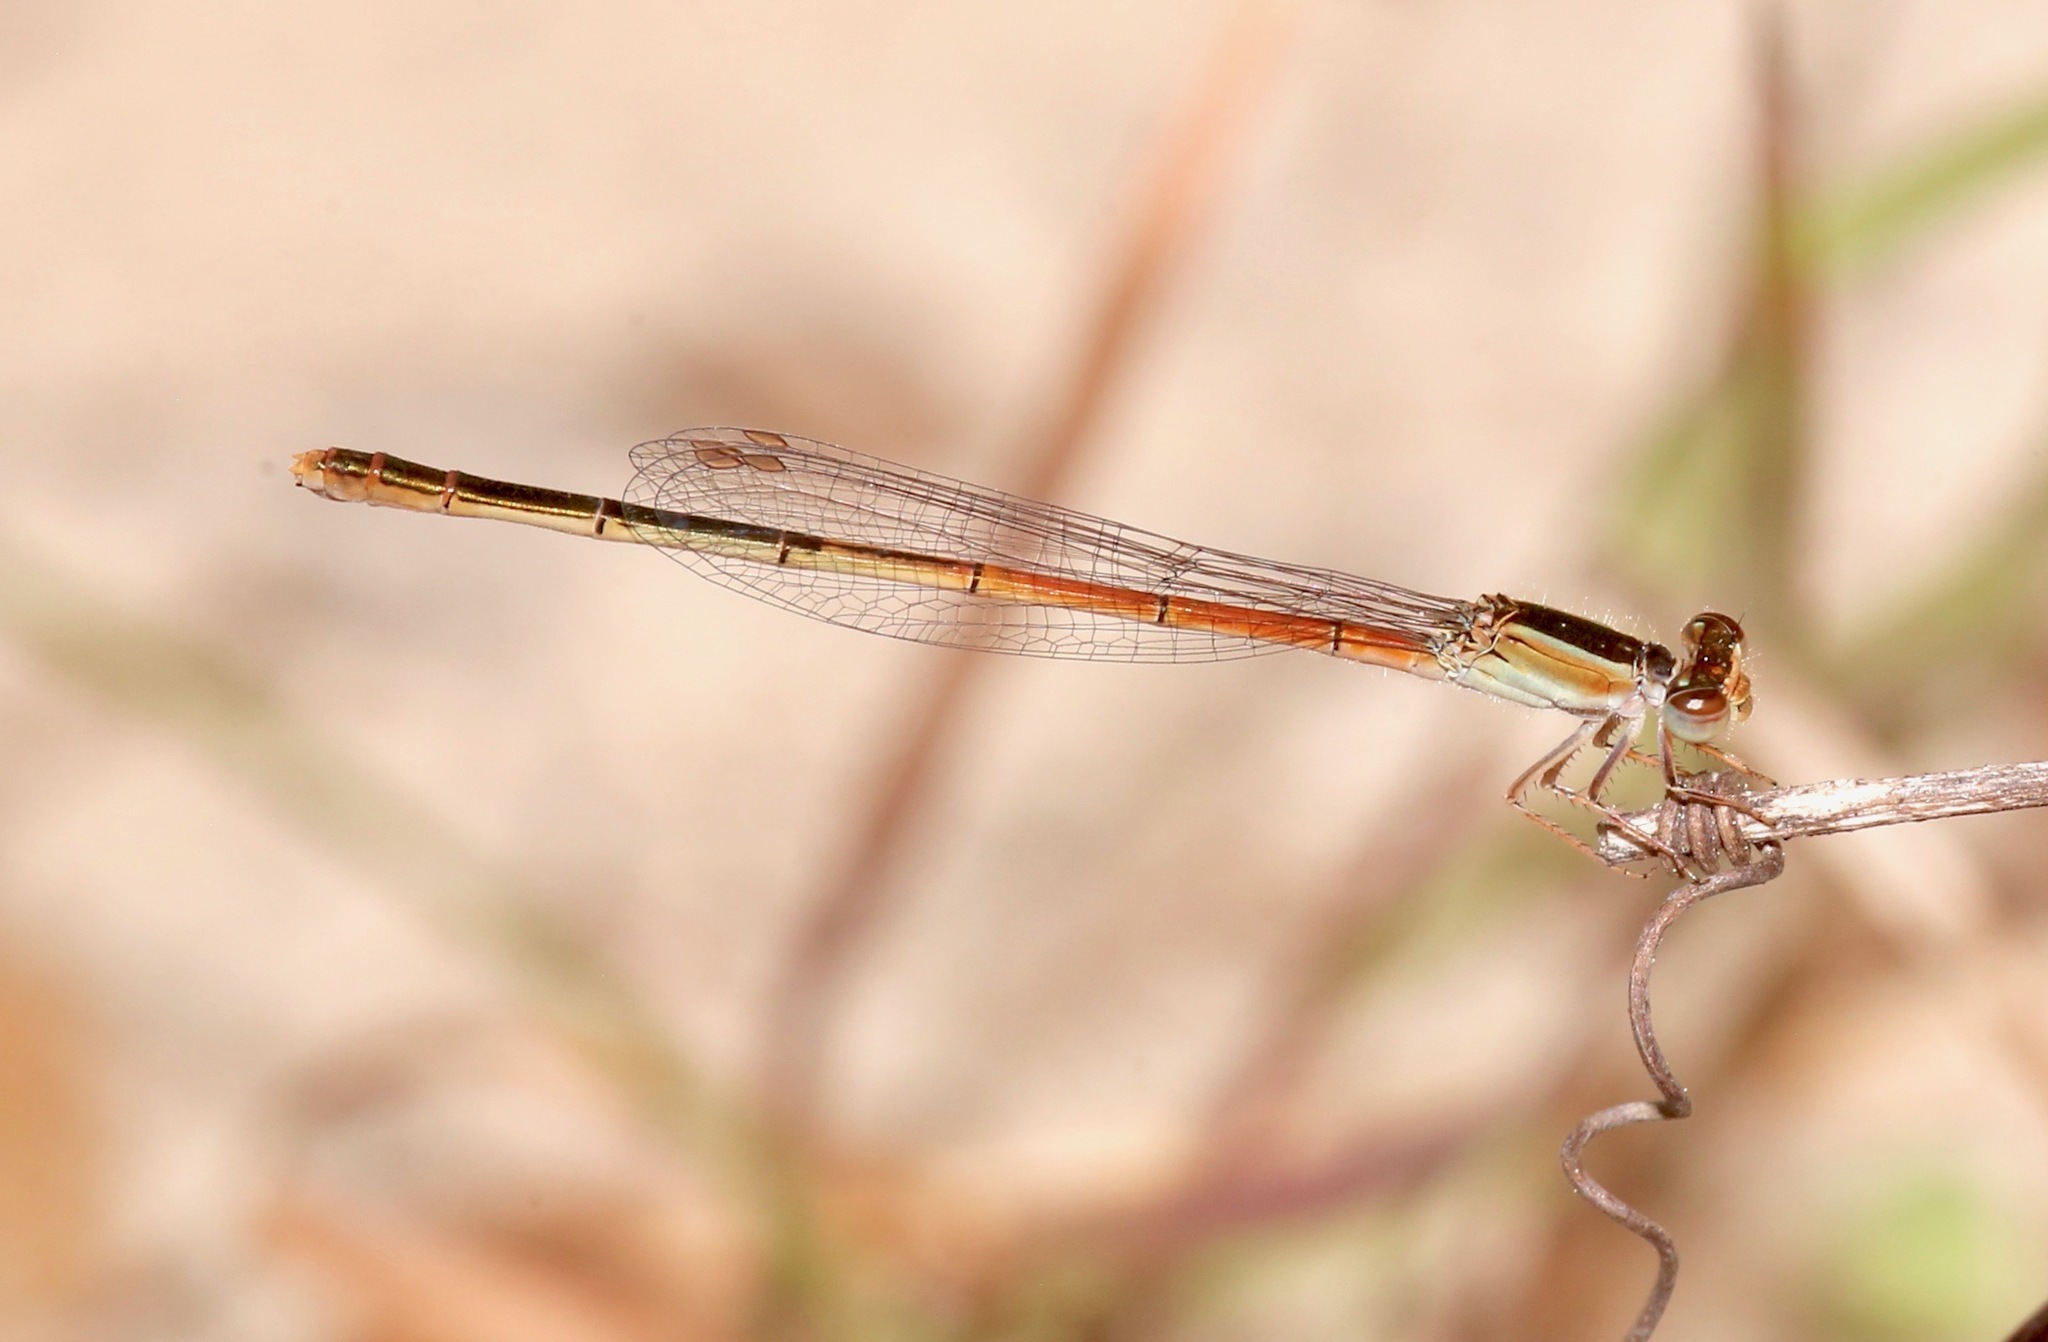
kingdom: Animalia
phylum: Arthropoda
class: Insecta
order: Odonata
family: Coenagrionidae
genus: Ischnura
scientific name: Ischnura hastata
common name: Citrine forktail
